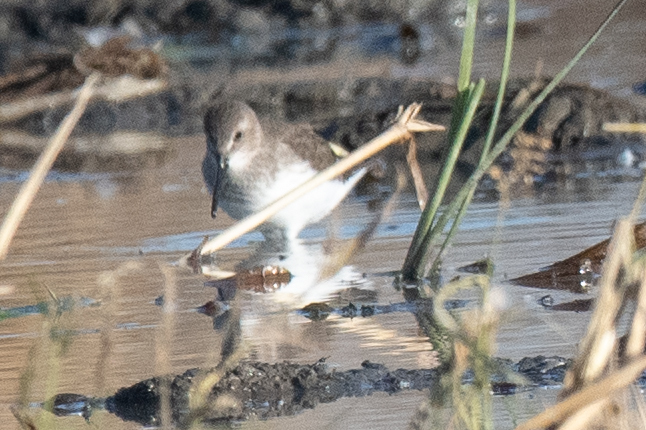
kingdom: Animalia
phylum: Chordata
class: Aves
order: Charadriiformes
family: Scolopacidae
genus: Calidris
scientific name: Calidris alpina
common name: Dunlin
